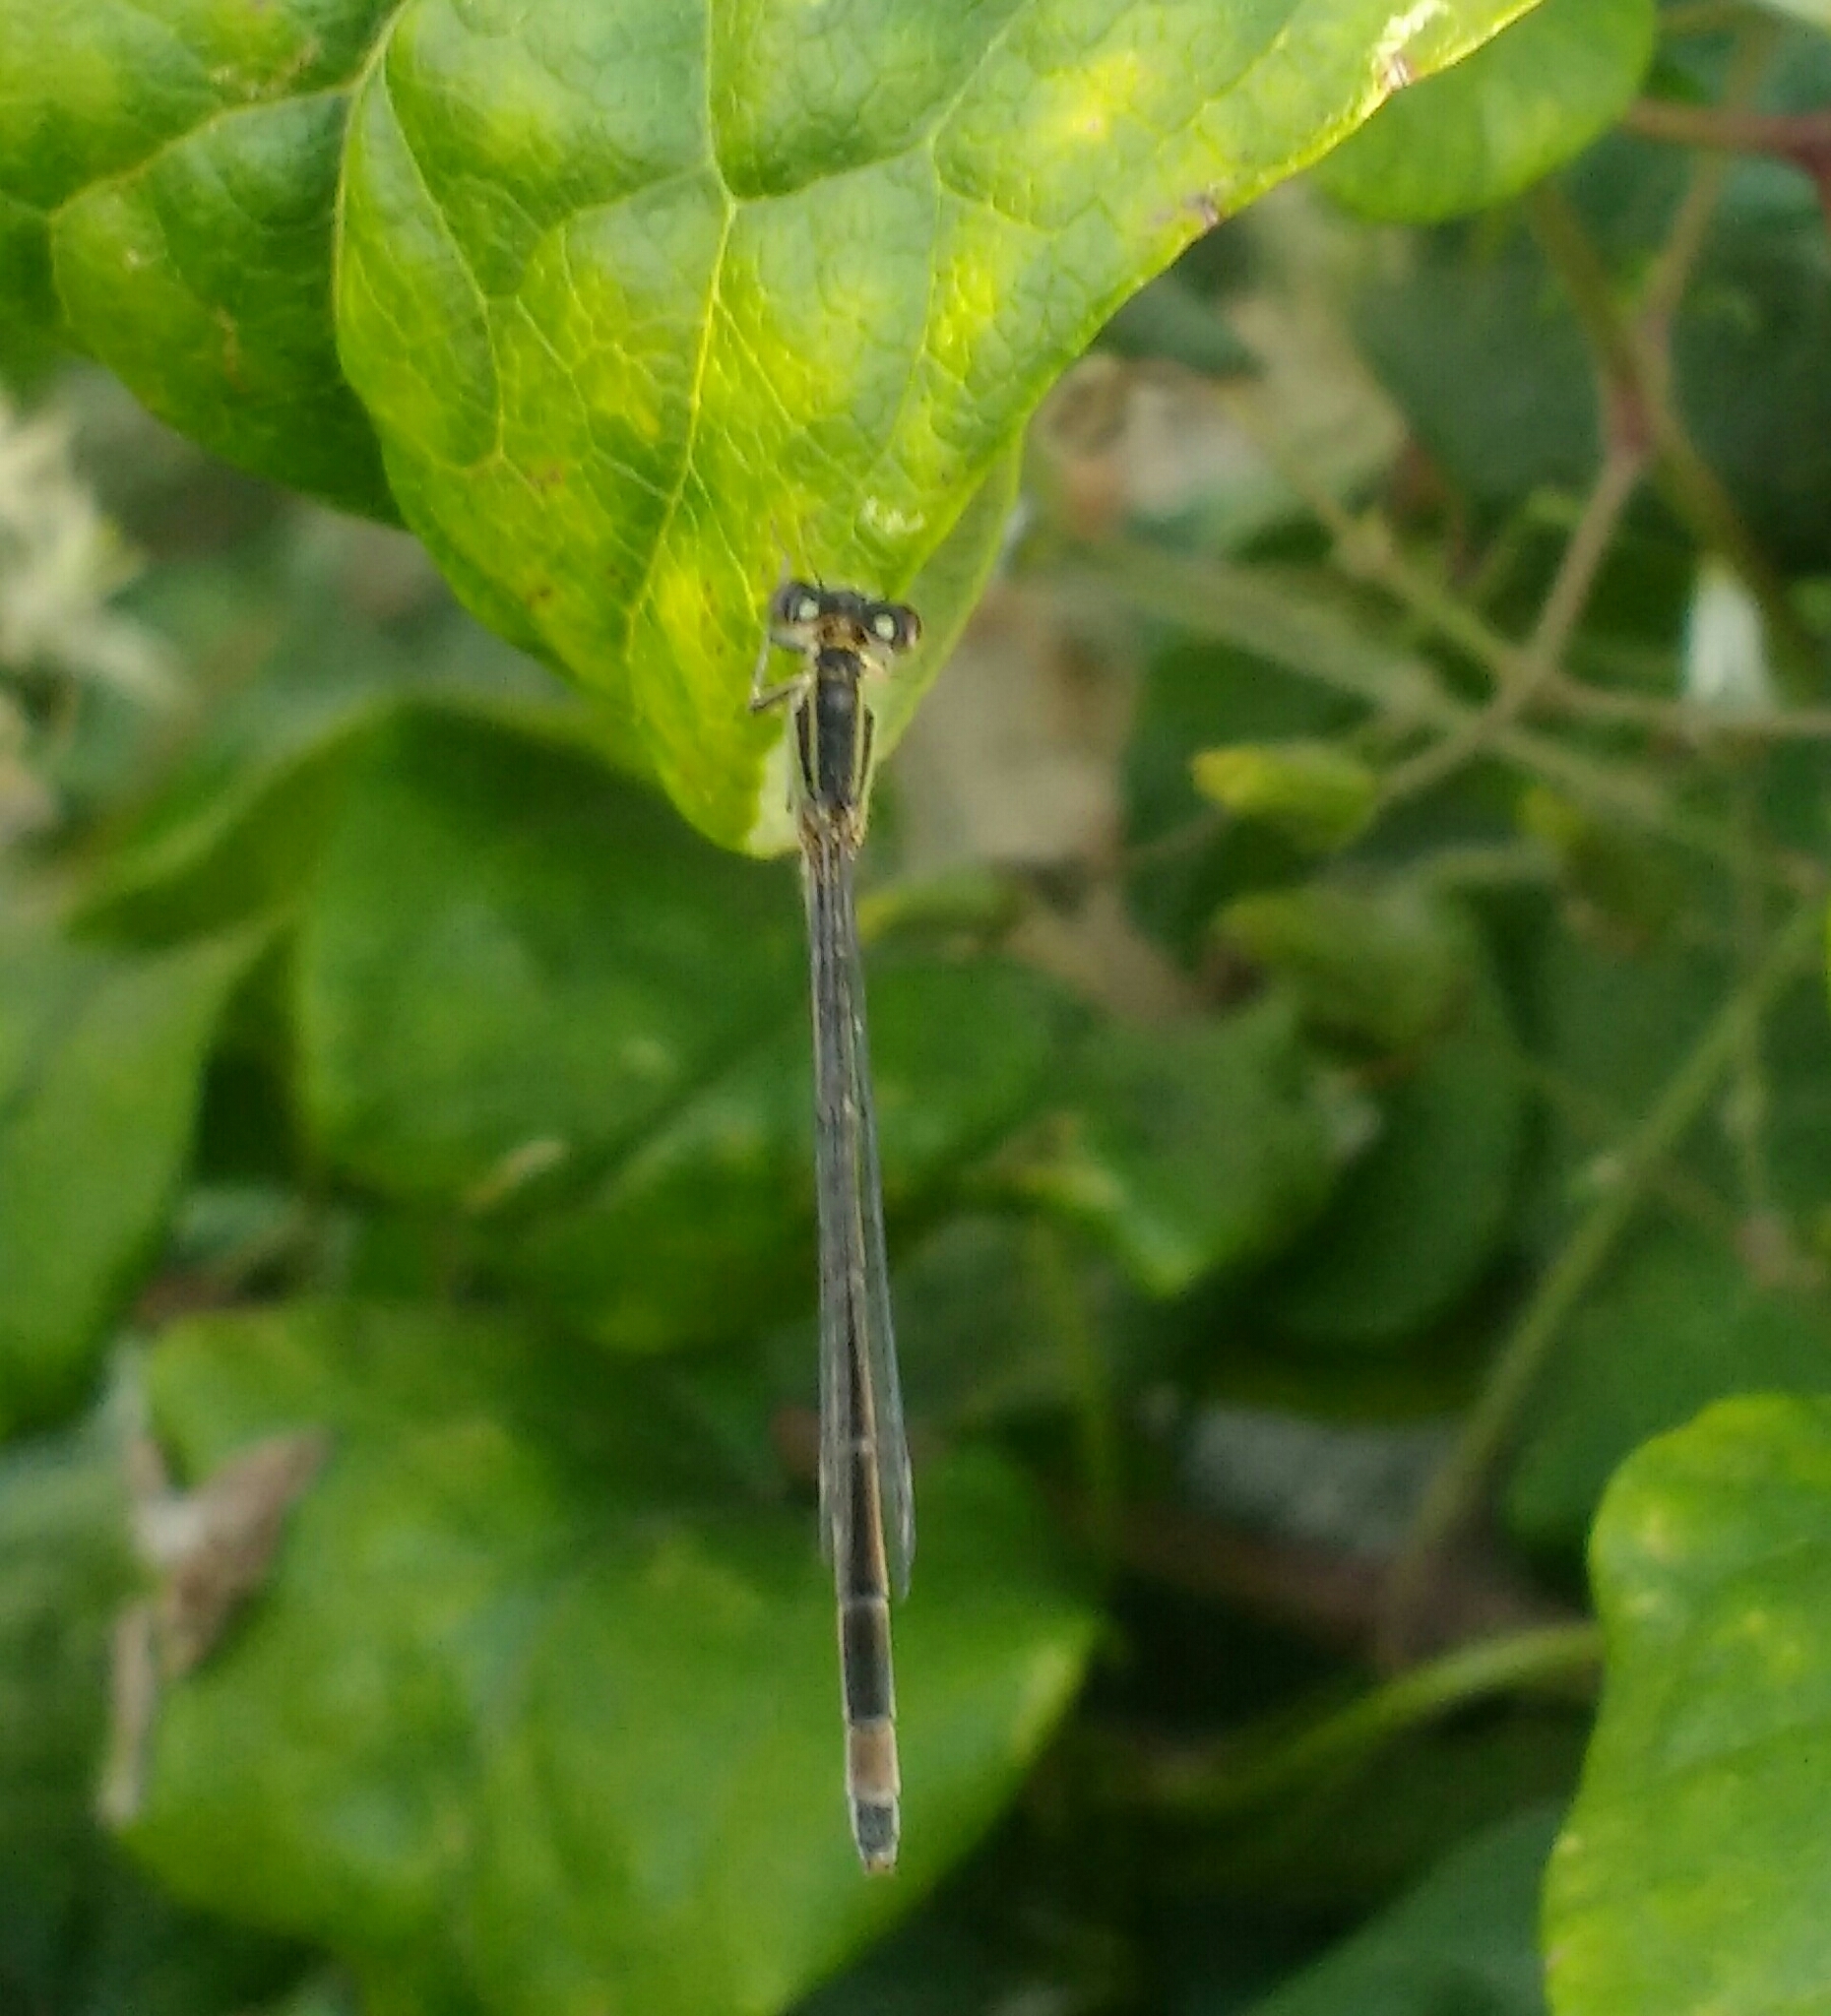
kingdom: Animalia
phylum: Arthropoda
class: Insecta
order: Odonata
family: Coenagrionidae
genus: Ischnura
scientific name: Ischnura elegans
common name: Blue-tailed damselfly
